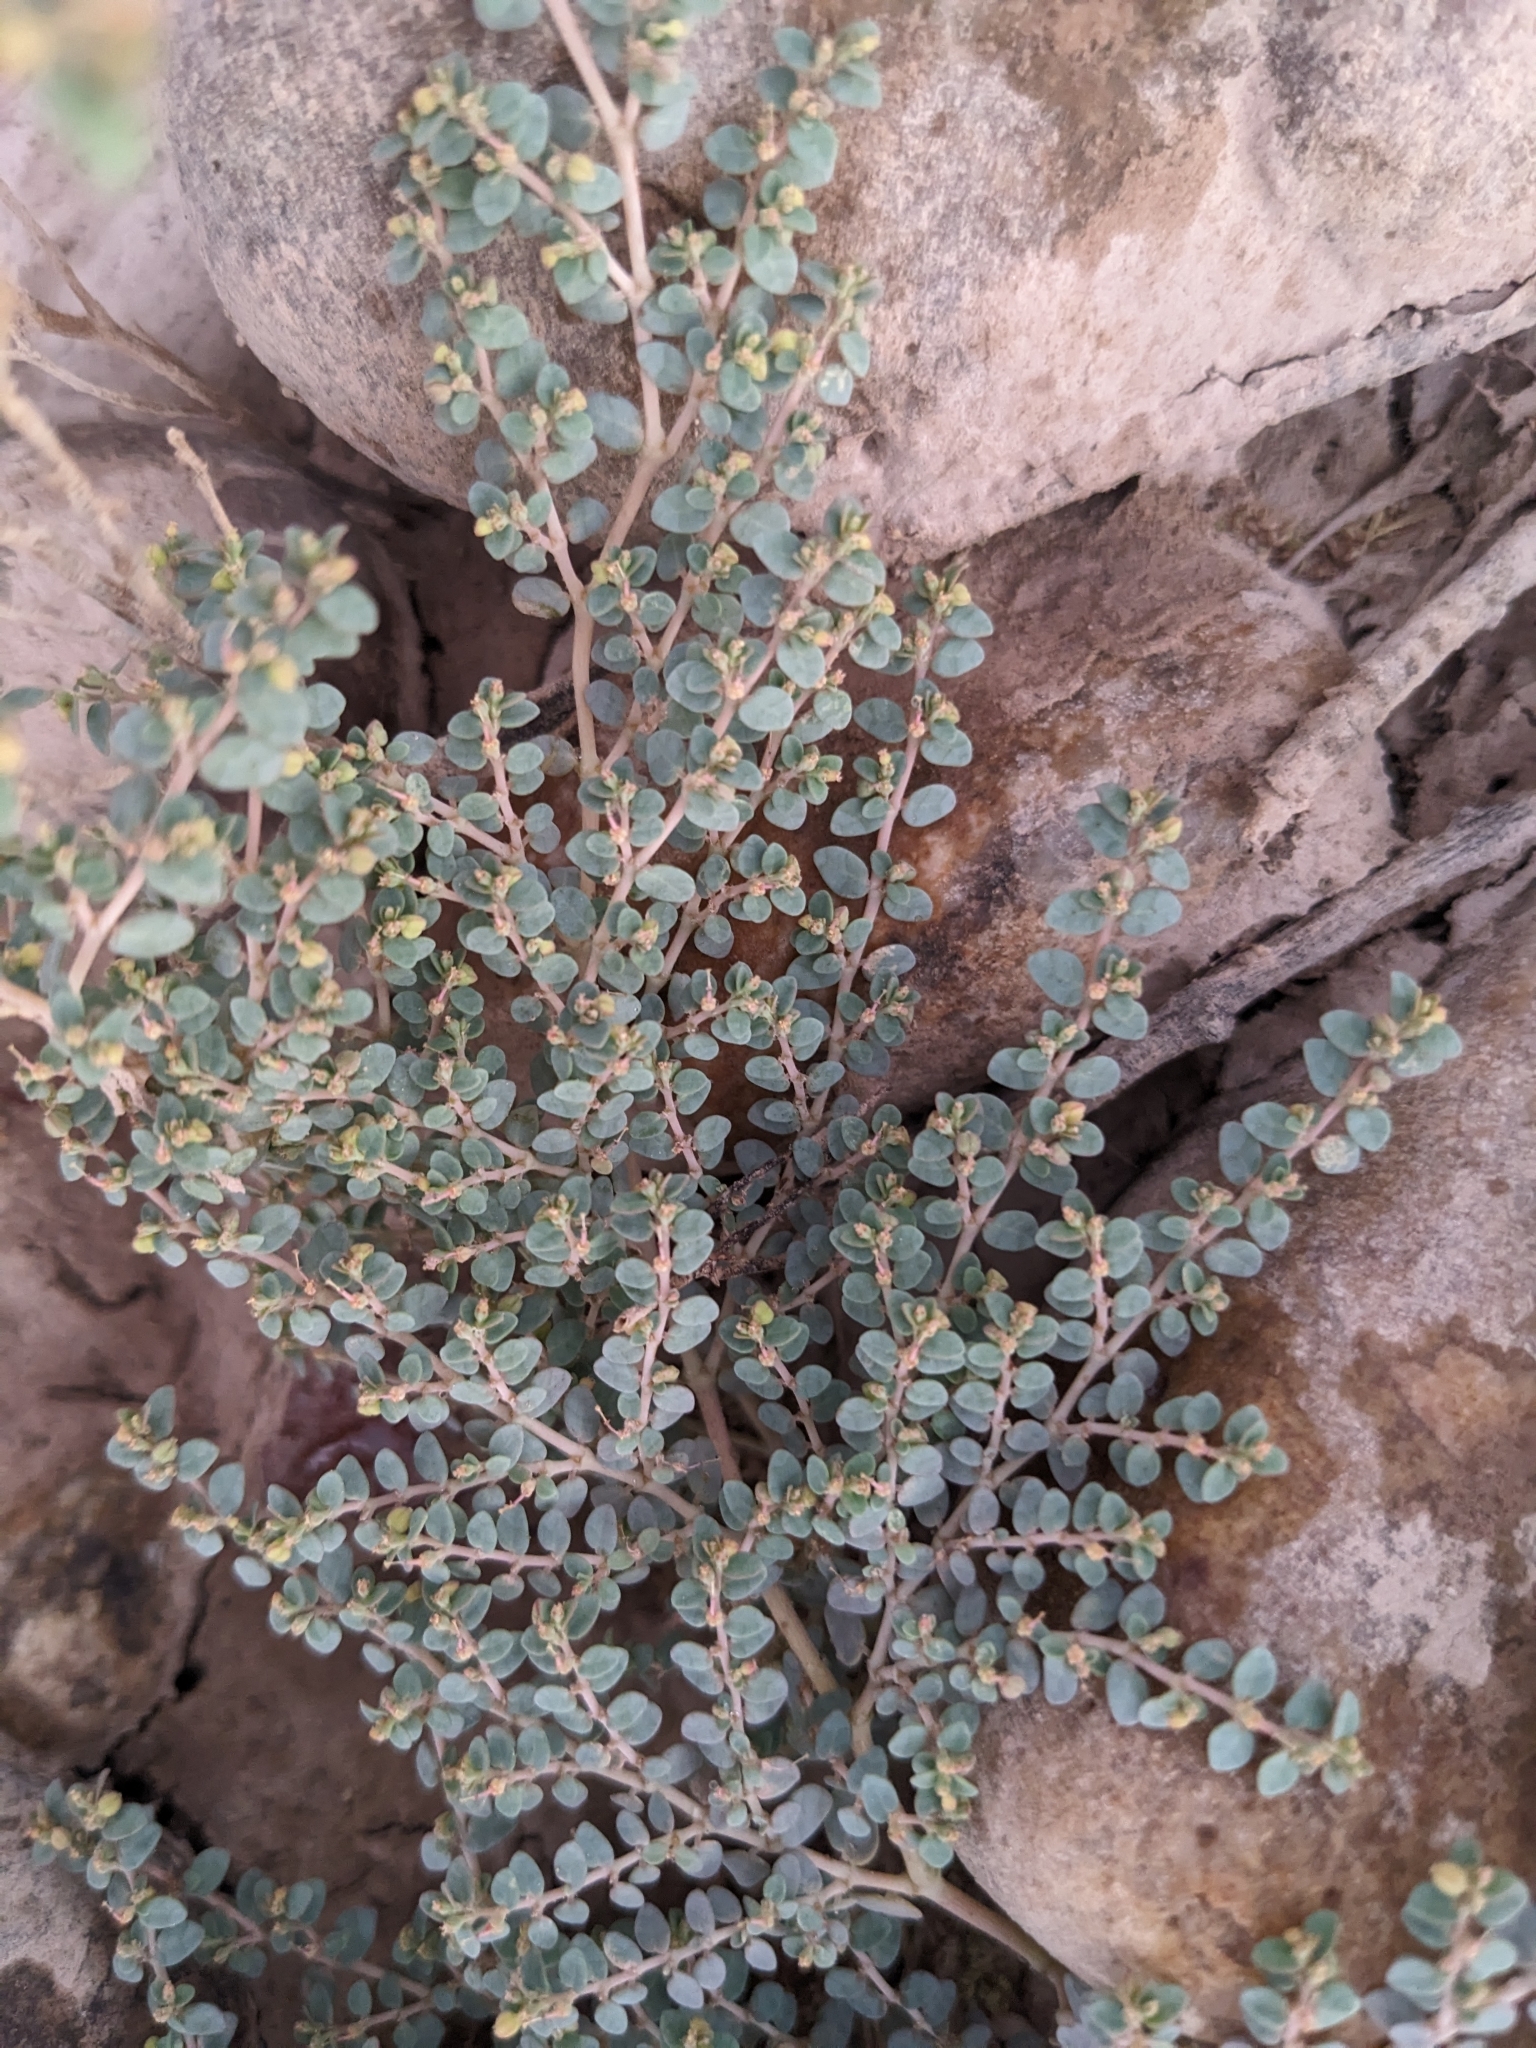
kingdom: Plantae
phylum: Tracheophyta
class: Magnoliopsida
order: Malpighiales
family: Euphorbiaceae
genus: Euphorbia
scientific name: Euphorbia micromera
